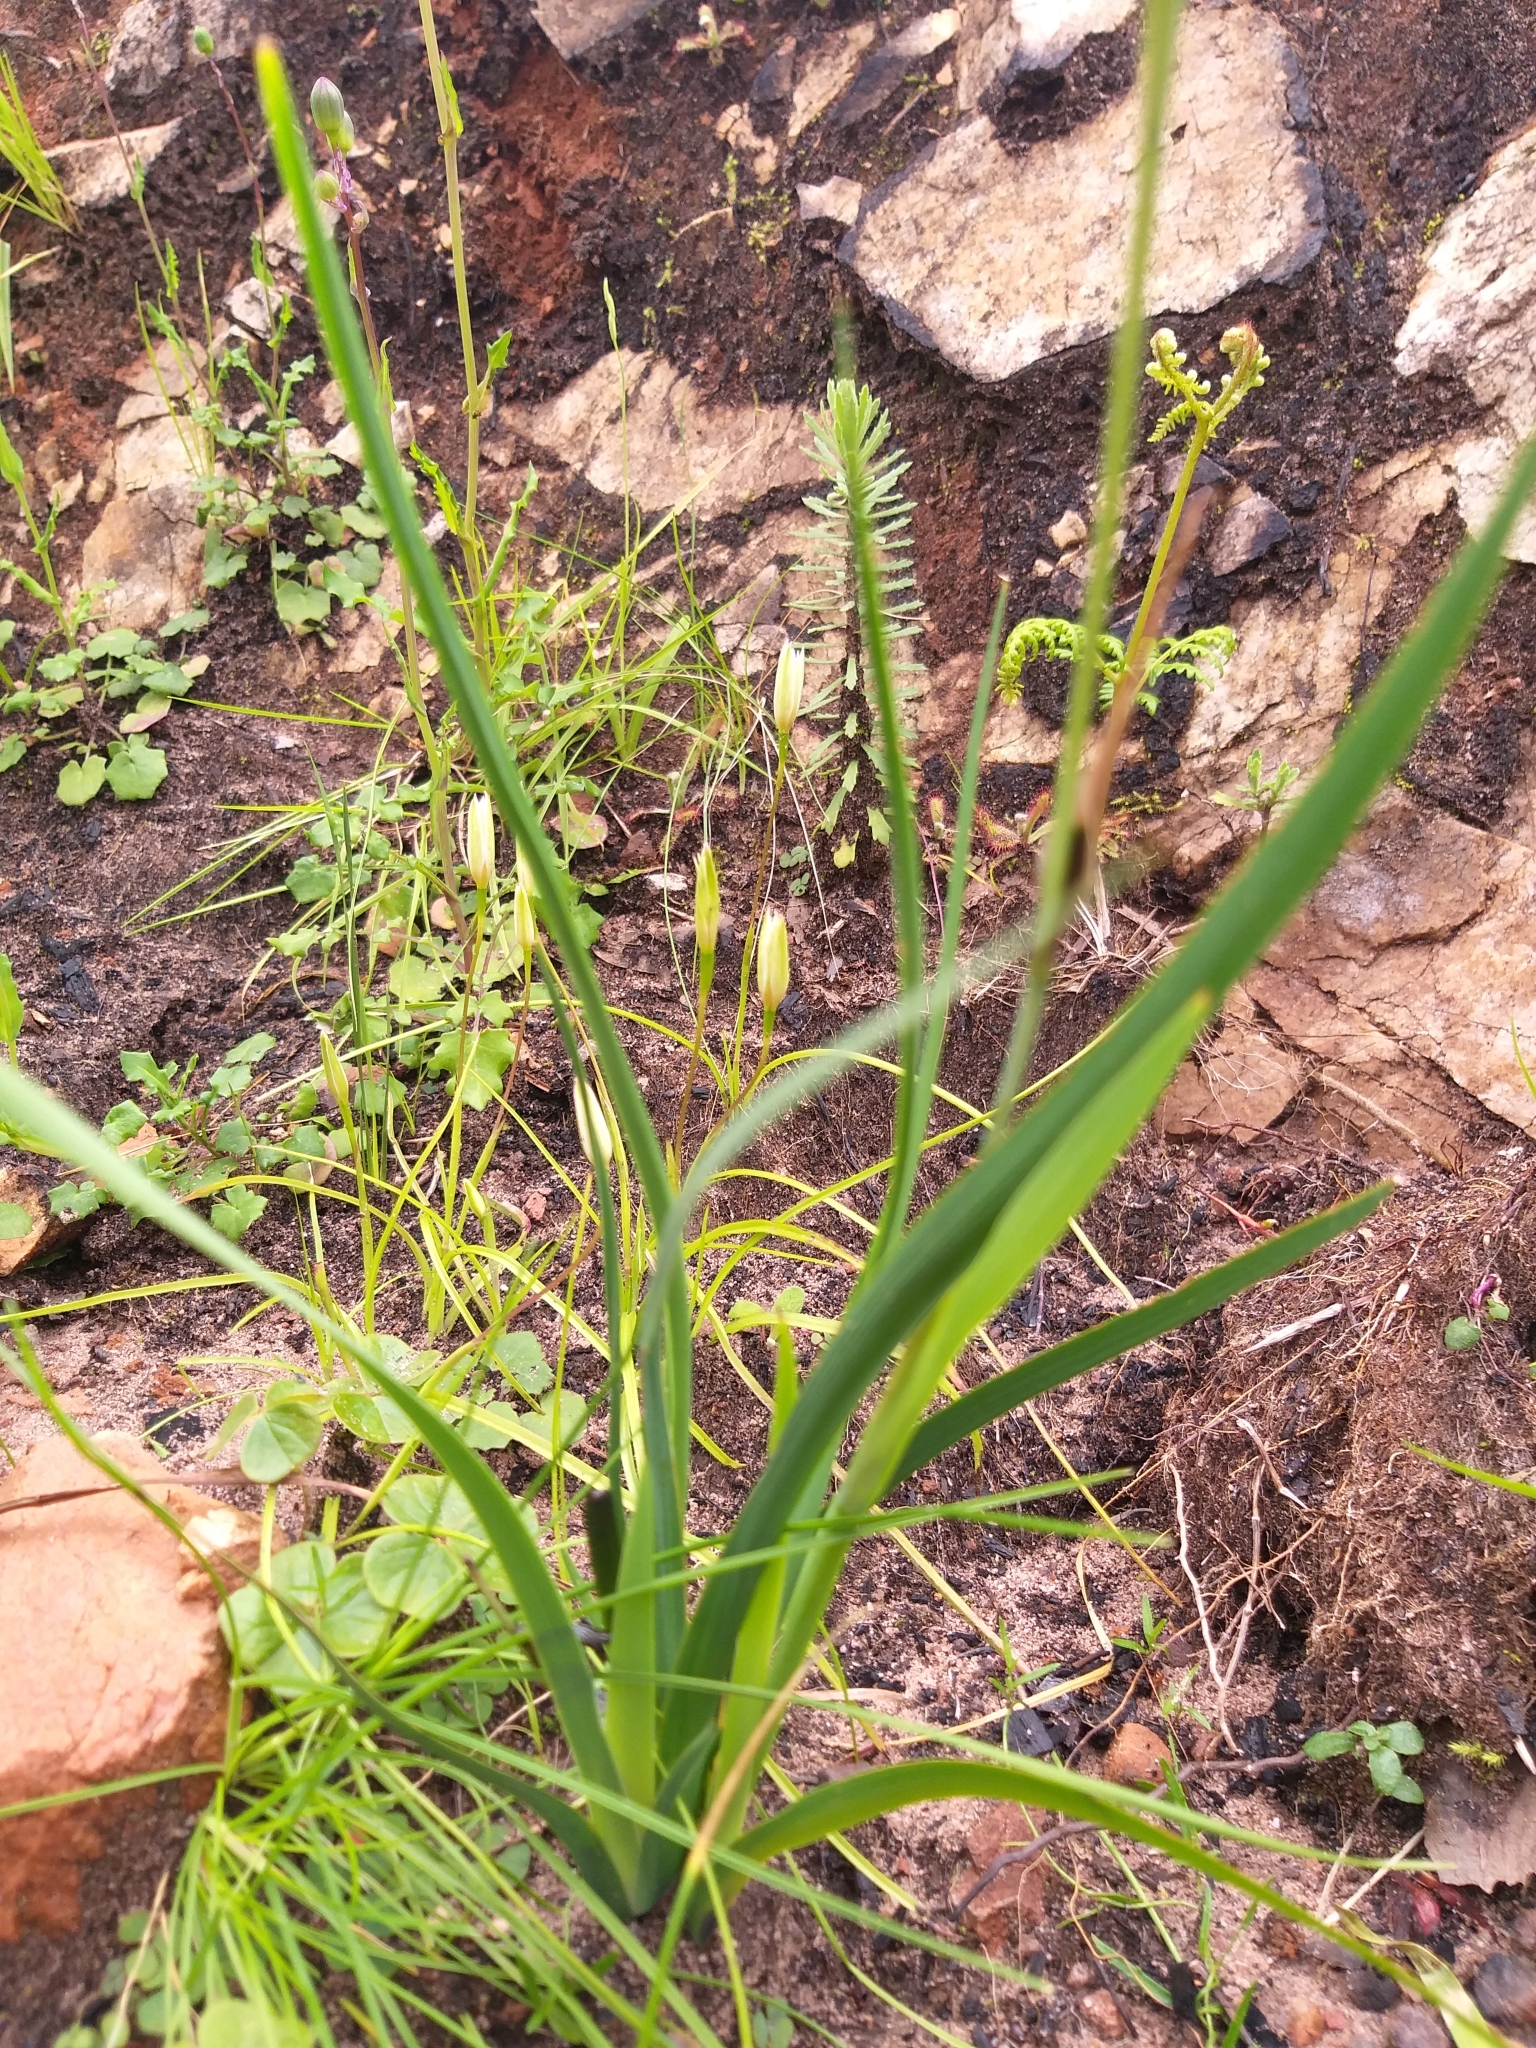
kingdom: Plantae
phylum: Tracheophyta
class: Liliopsida
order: Asparagales
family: Iridaceae
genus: Aristea
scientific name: Aristea spiralis
